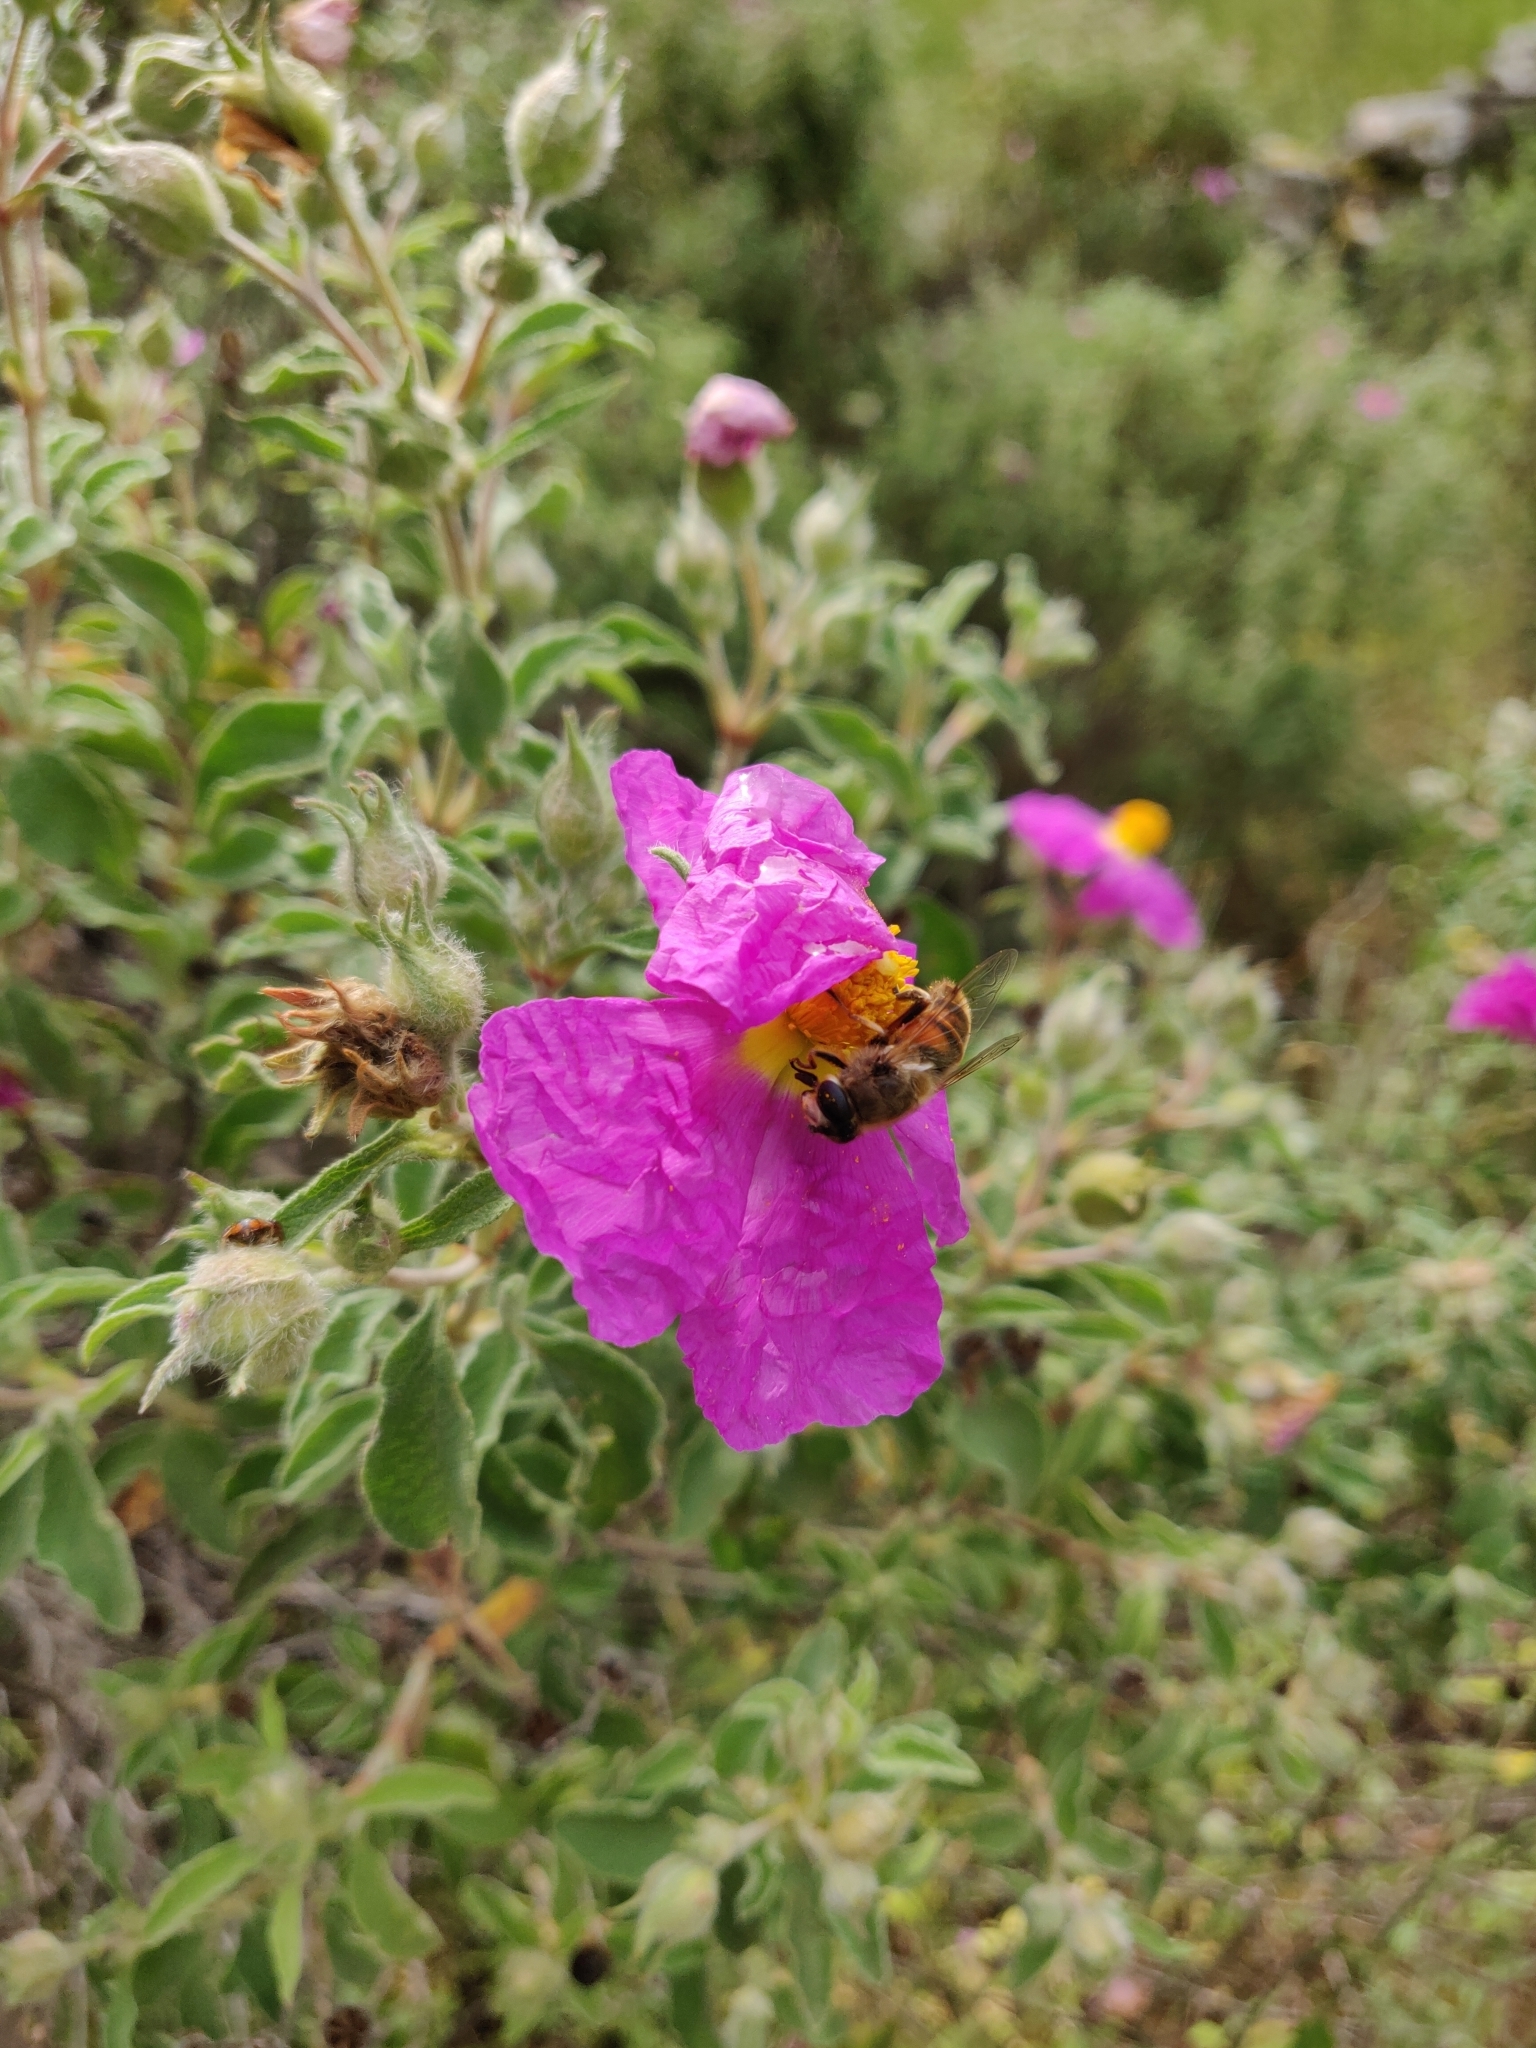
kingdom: Animalia
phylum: Arthropoda
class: Insecta
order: Diptera
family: Syrphidae
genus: Eristalis
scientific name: Eristalis tenax
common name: Drone fly
